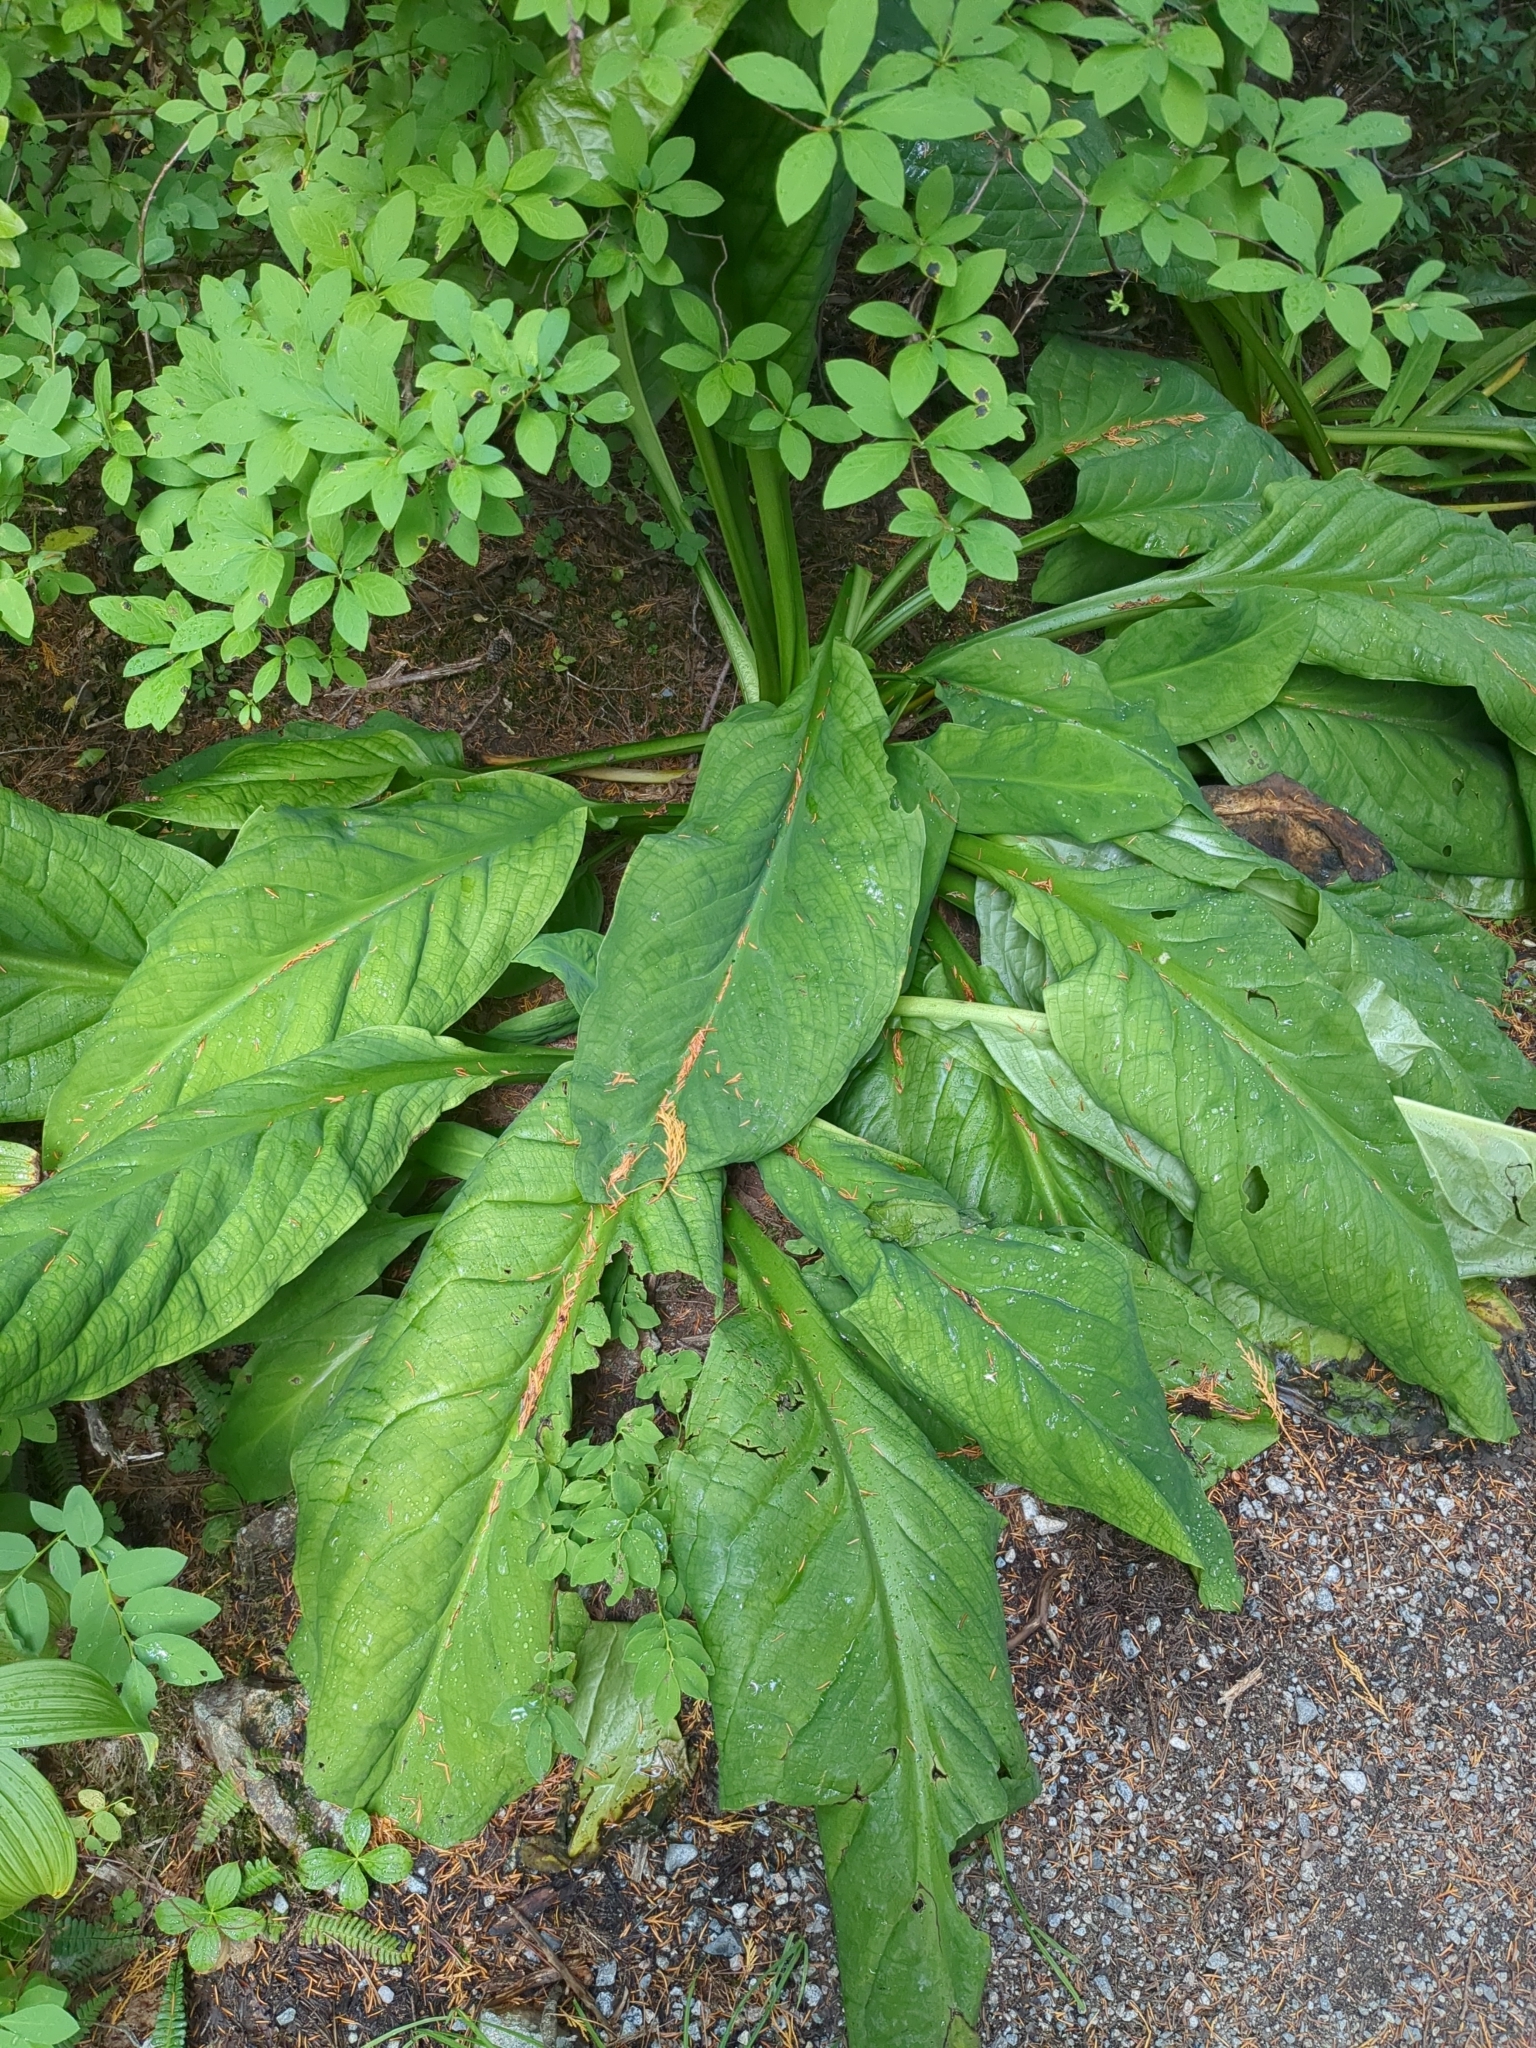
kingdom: Plantae
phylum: Tracheophyta
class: Liliopsida
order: Alismatales
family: Araceae
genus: Lysichiton
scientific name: Lysichiton americanus
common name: American skunk cabbage
